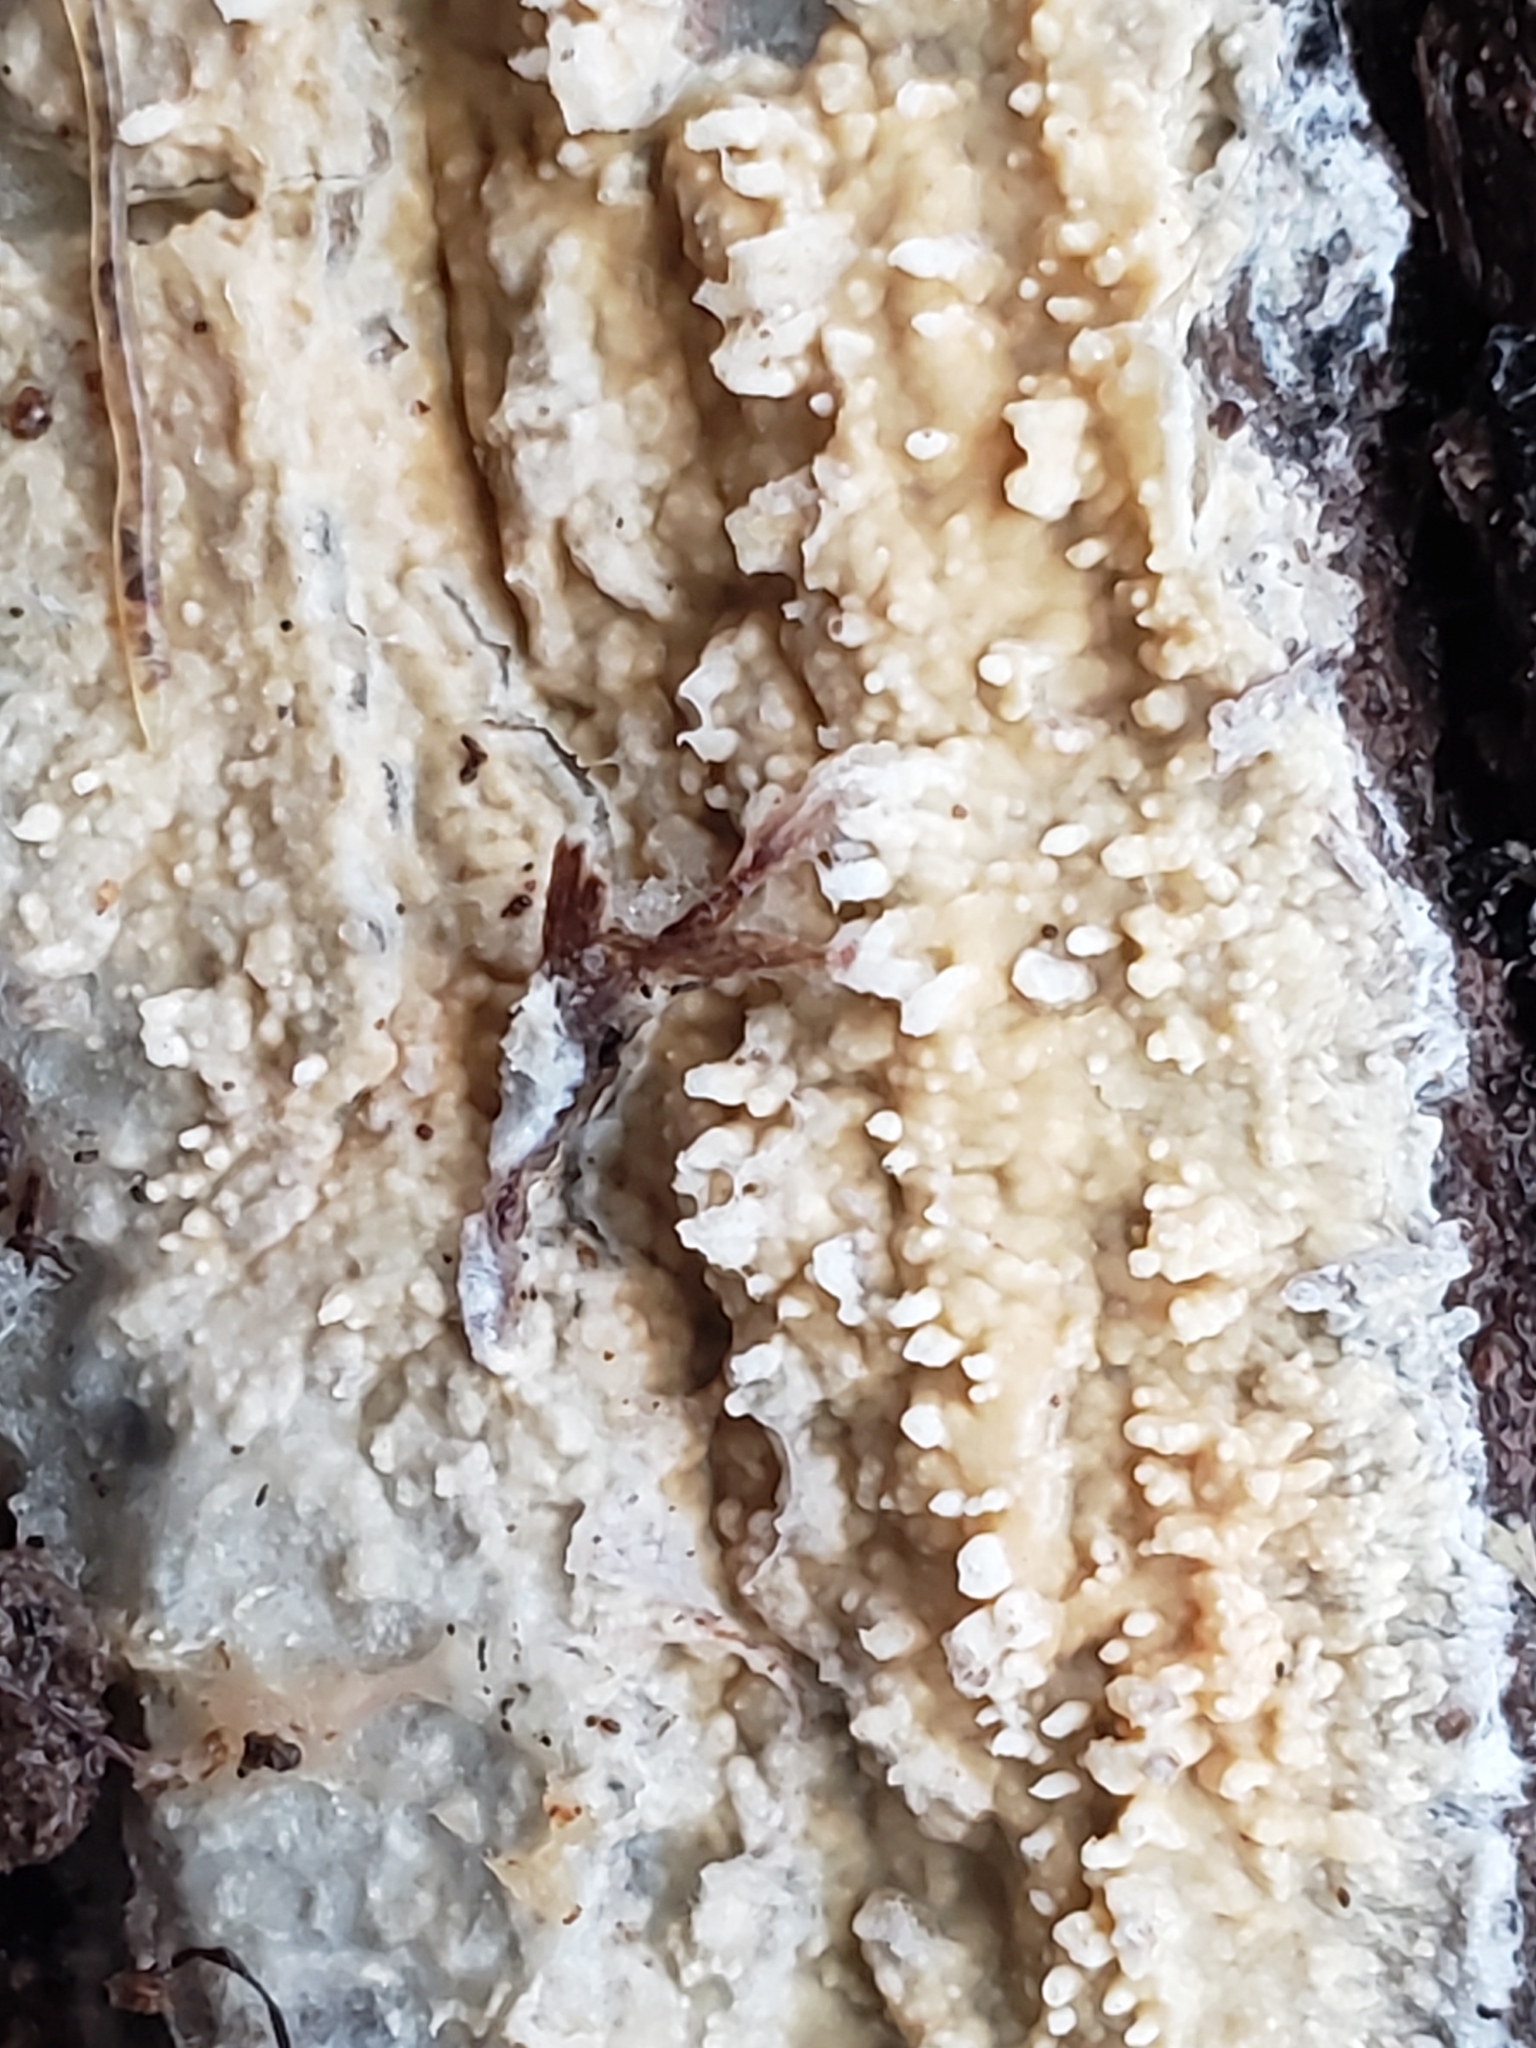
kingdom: Fungi
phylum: Basidiomycota
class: Agaricomycetes
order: Agaricales
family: Radulomycetaceae
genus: Radulomyces
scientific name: Radulomyces copelandii
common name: Asian beauty
